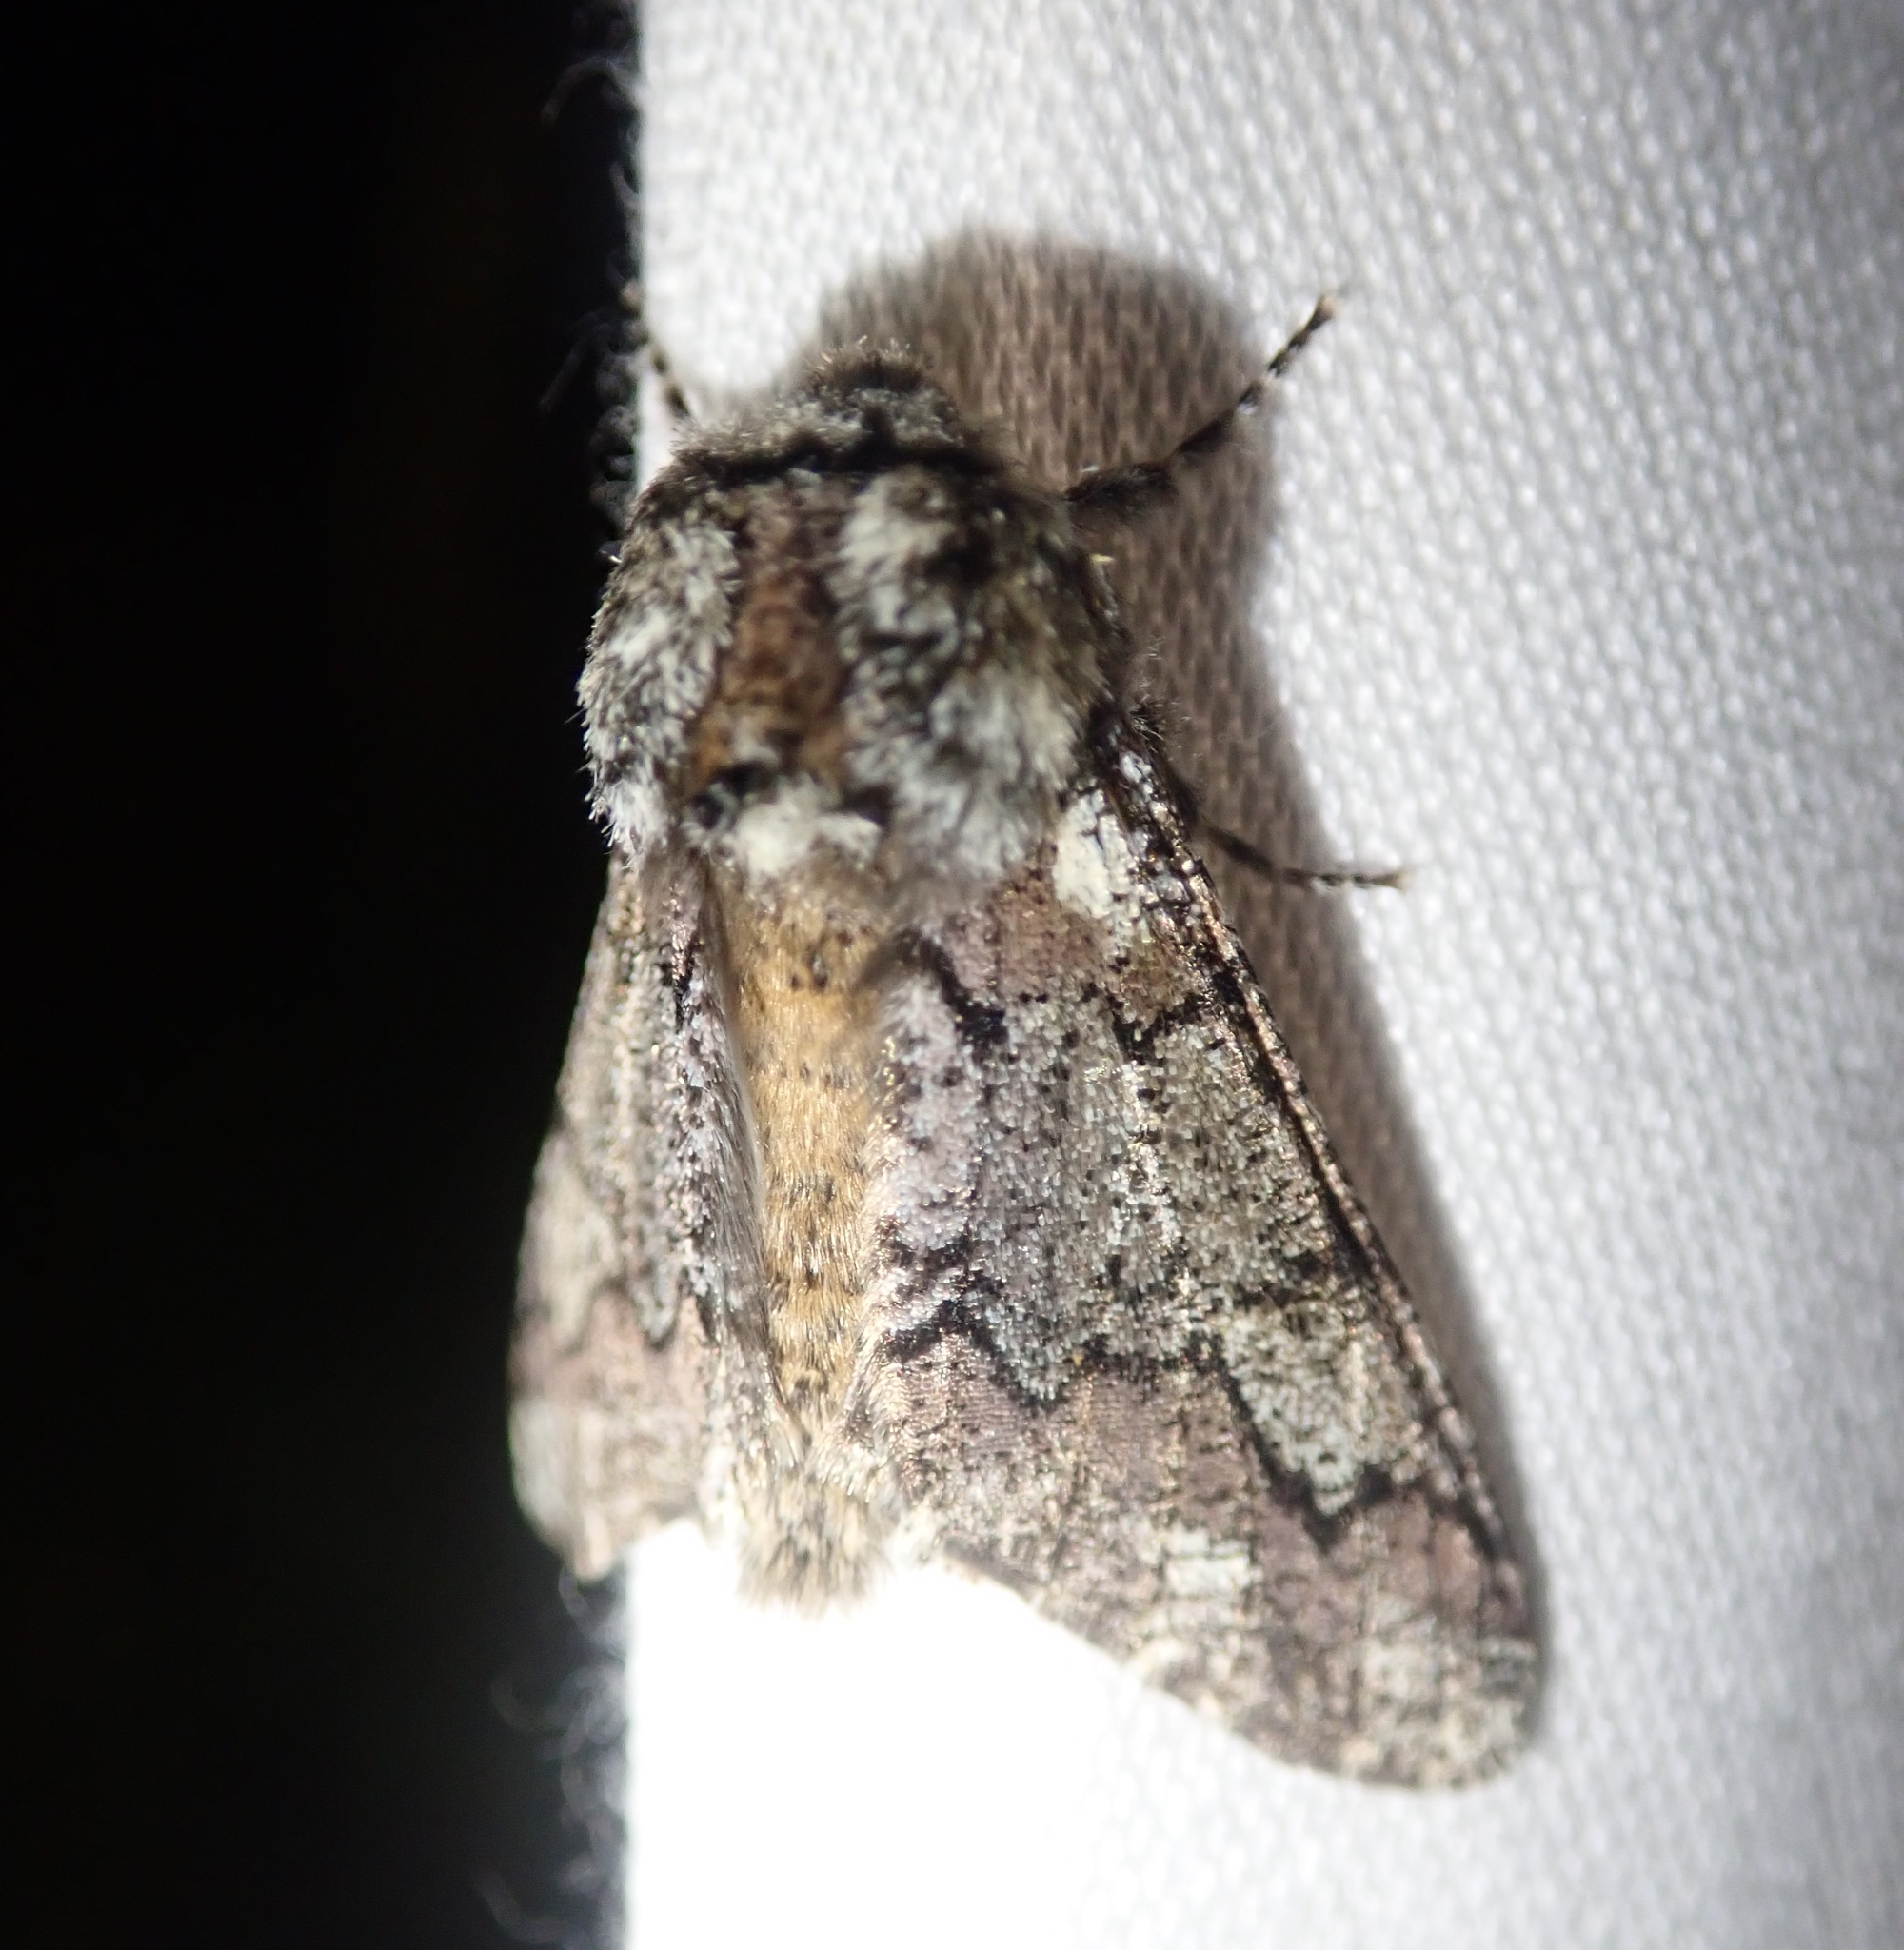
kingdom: Animalia
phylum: Arthropoda
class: Insecta
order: Lepidoptera
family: Geometridae
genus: Biston
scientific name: Biston strataria
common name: Oak beauty
